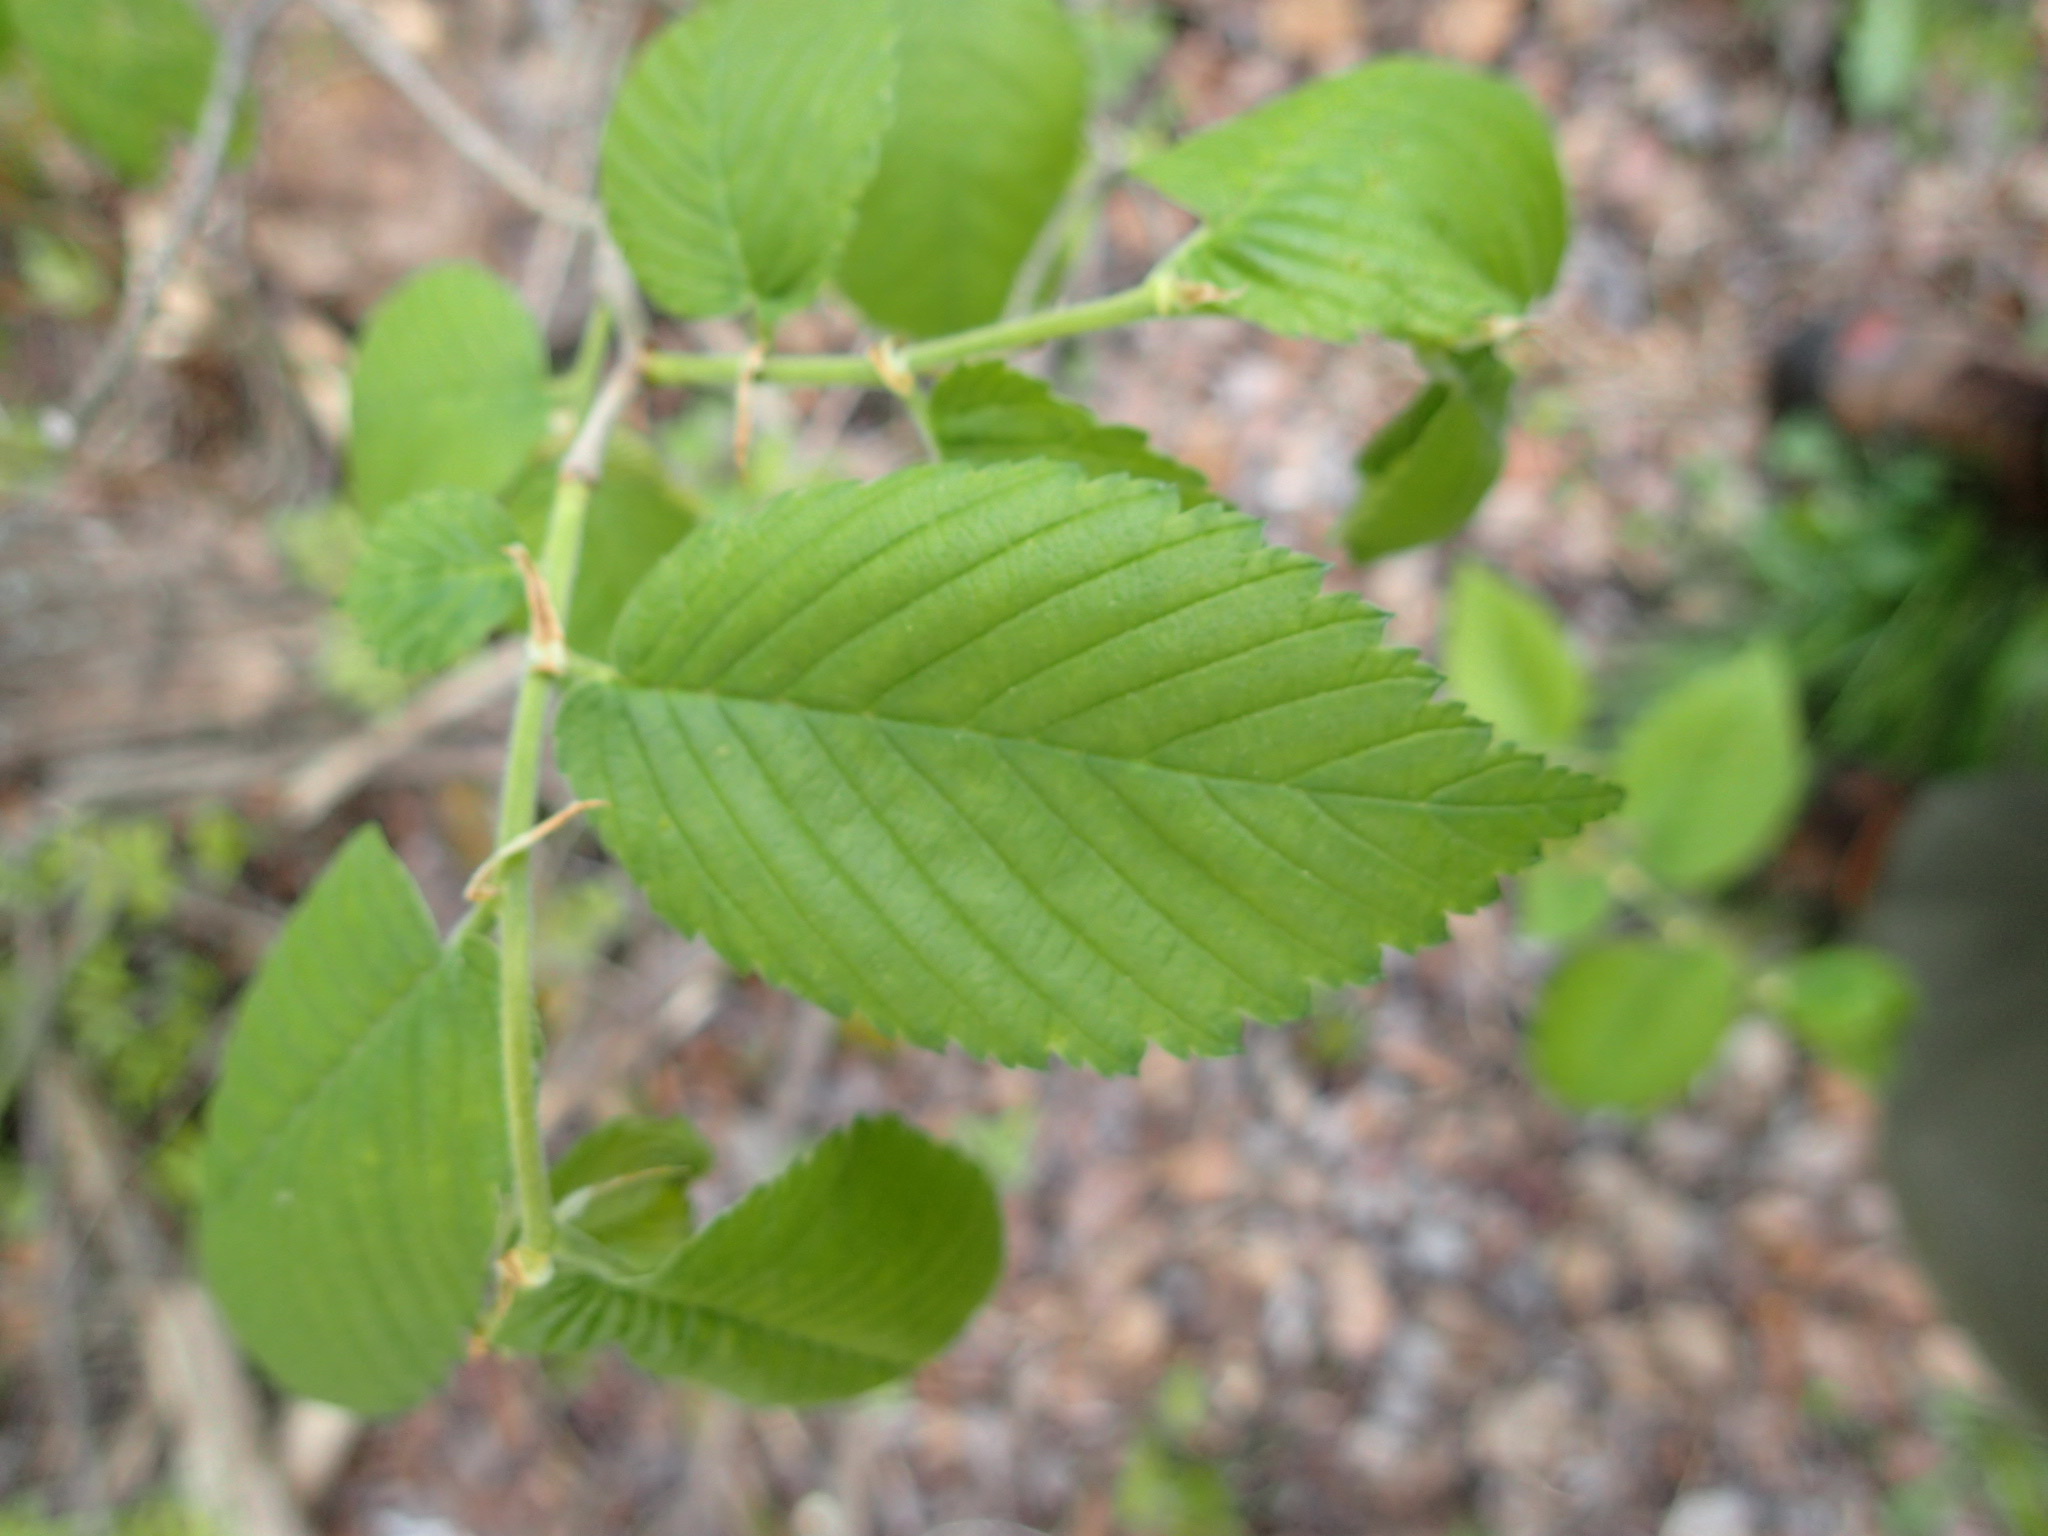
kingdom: Plantae
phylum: Tracheophyta
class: Magnoliopsida
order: Rosales
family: Ulmaceae
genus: Ulmus
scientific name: Ulmus americana
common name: American elm
